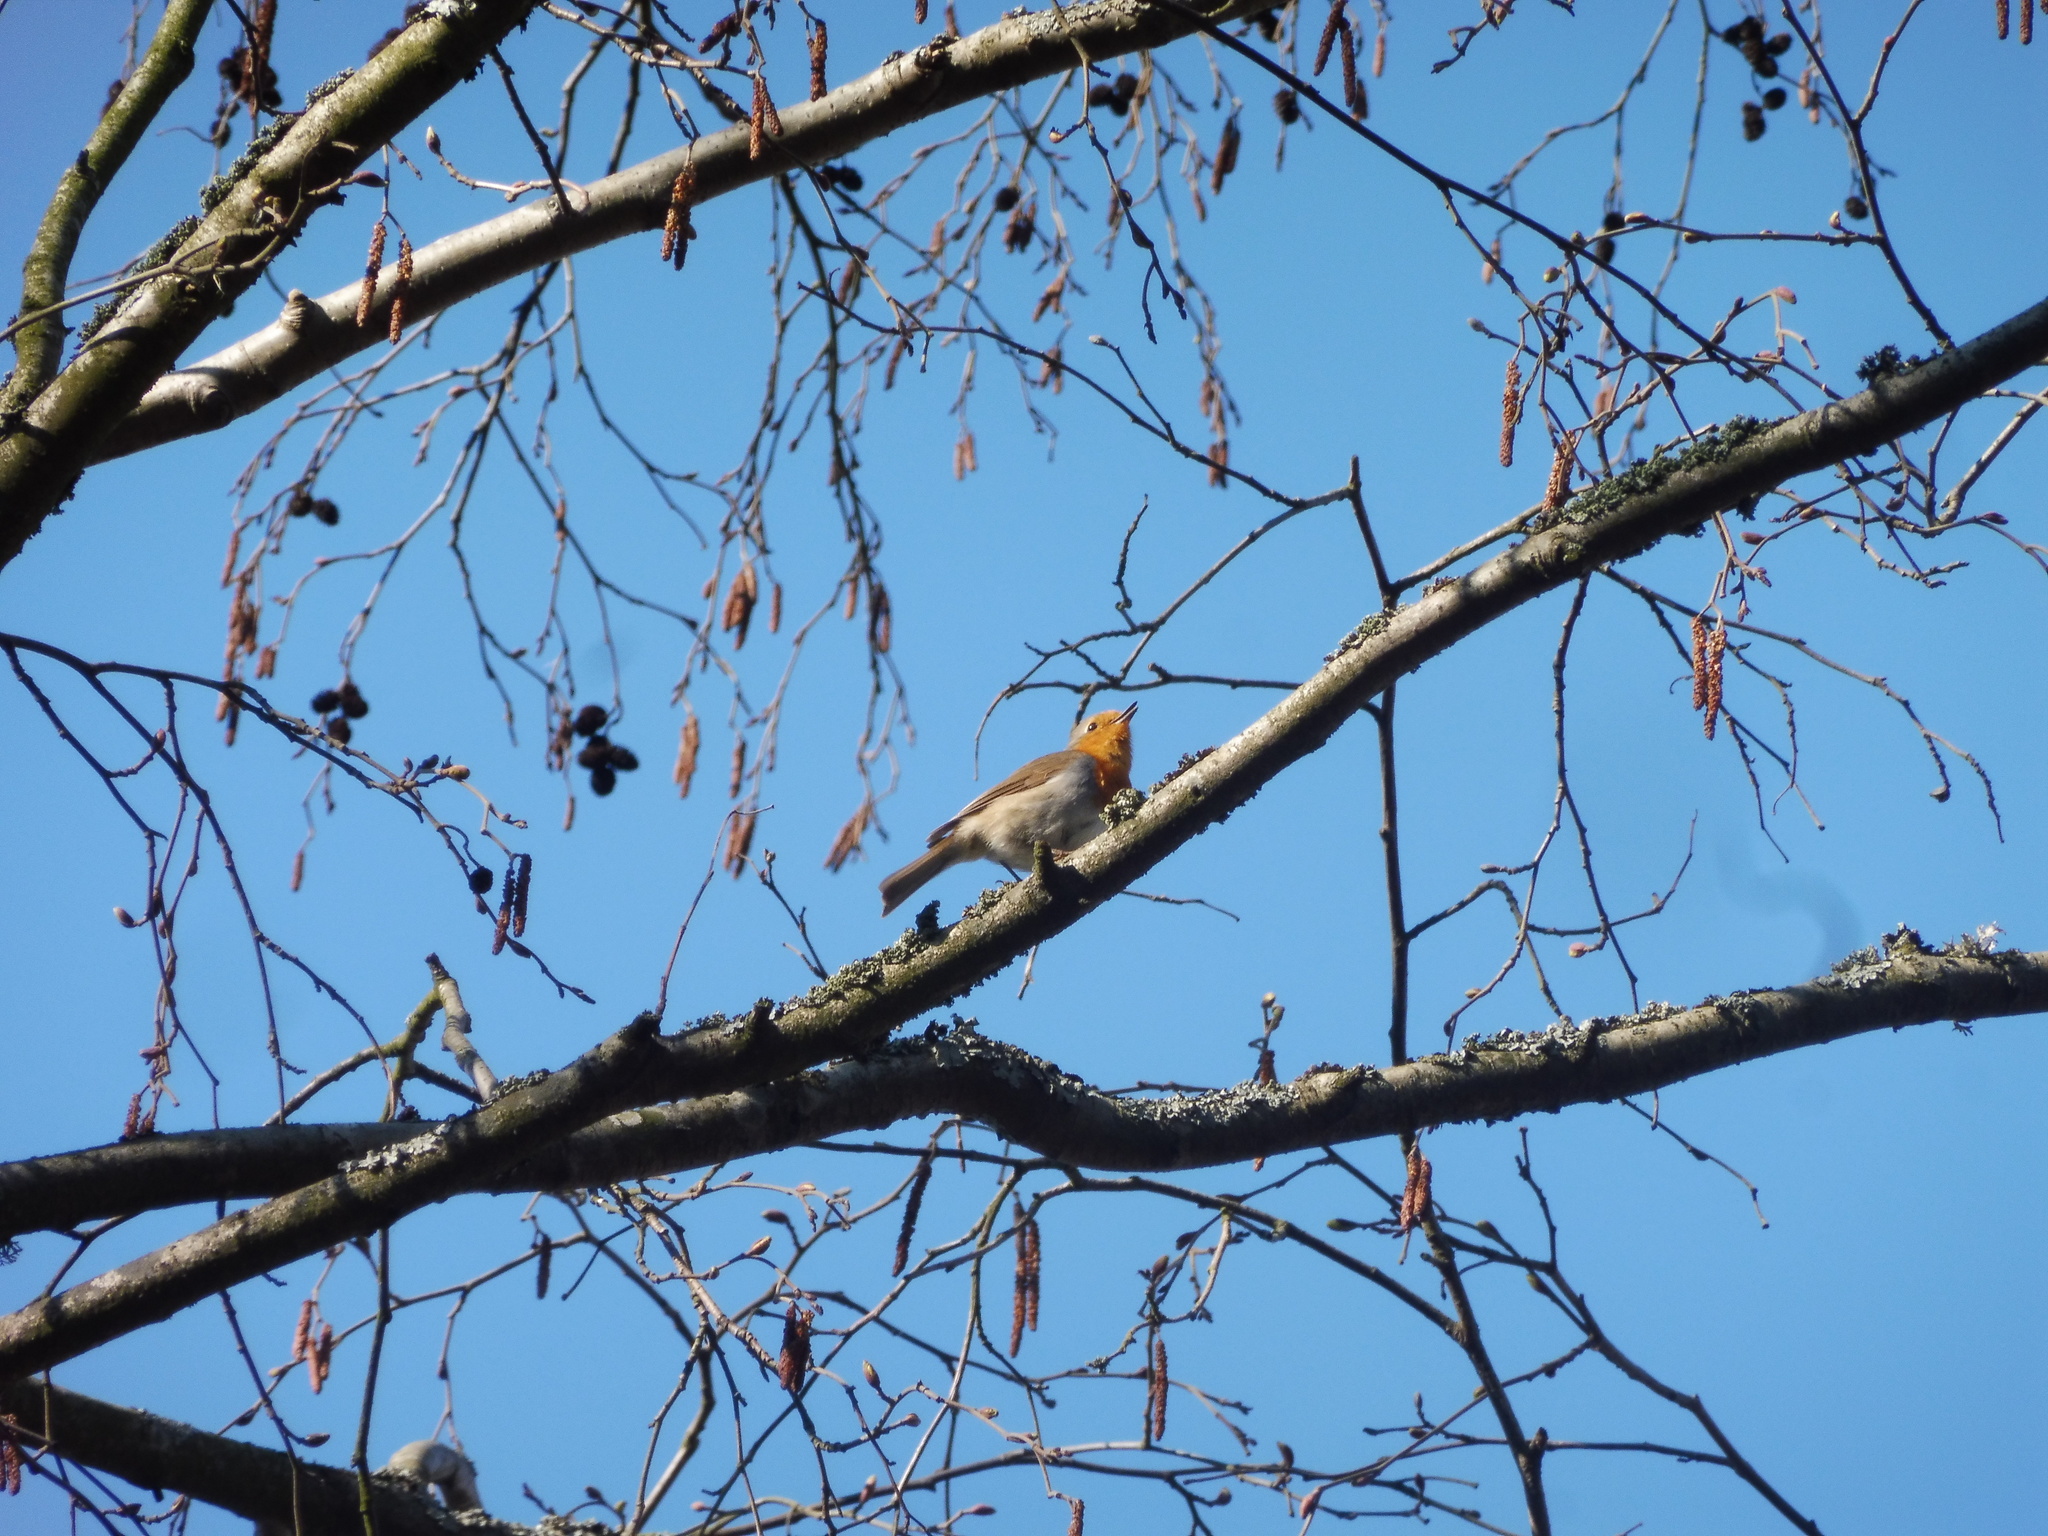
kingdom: Animalia
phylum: Chordata
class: Aves
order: Passeriformes
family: Muscicapidae
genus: Erithacus
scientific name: Erithacus rubecula
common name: European robin
